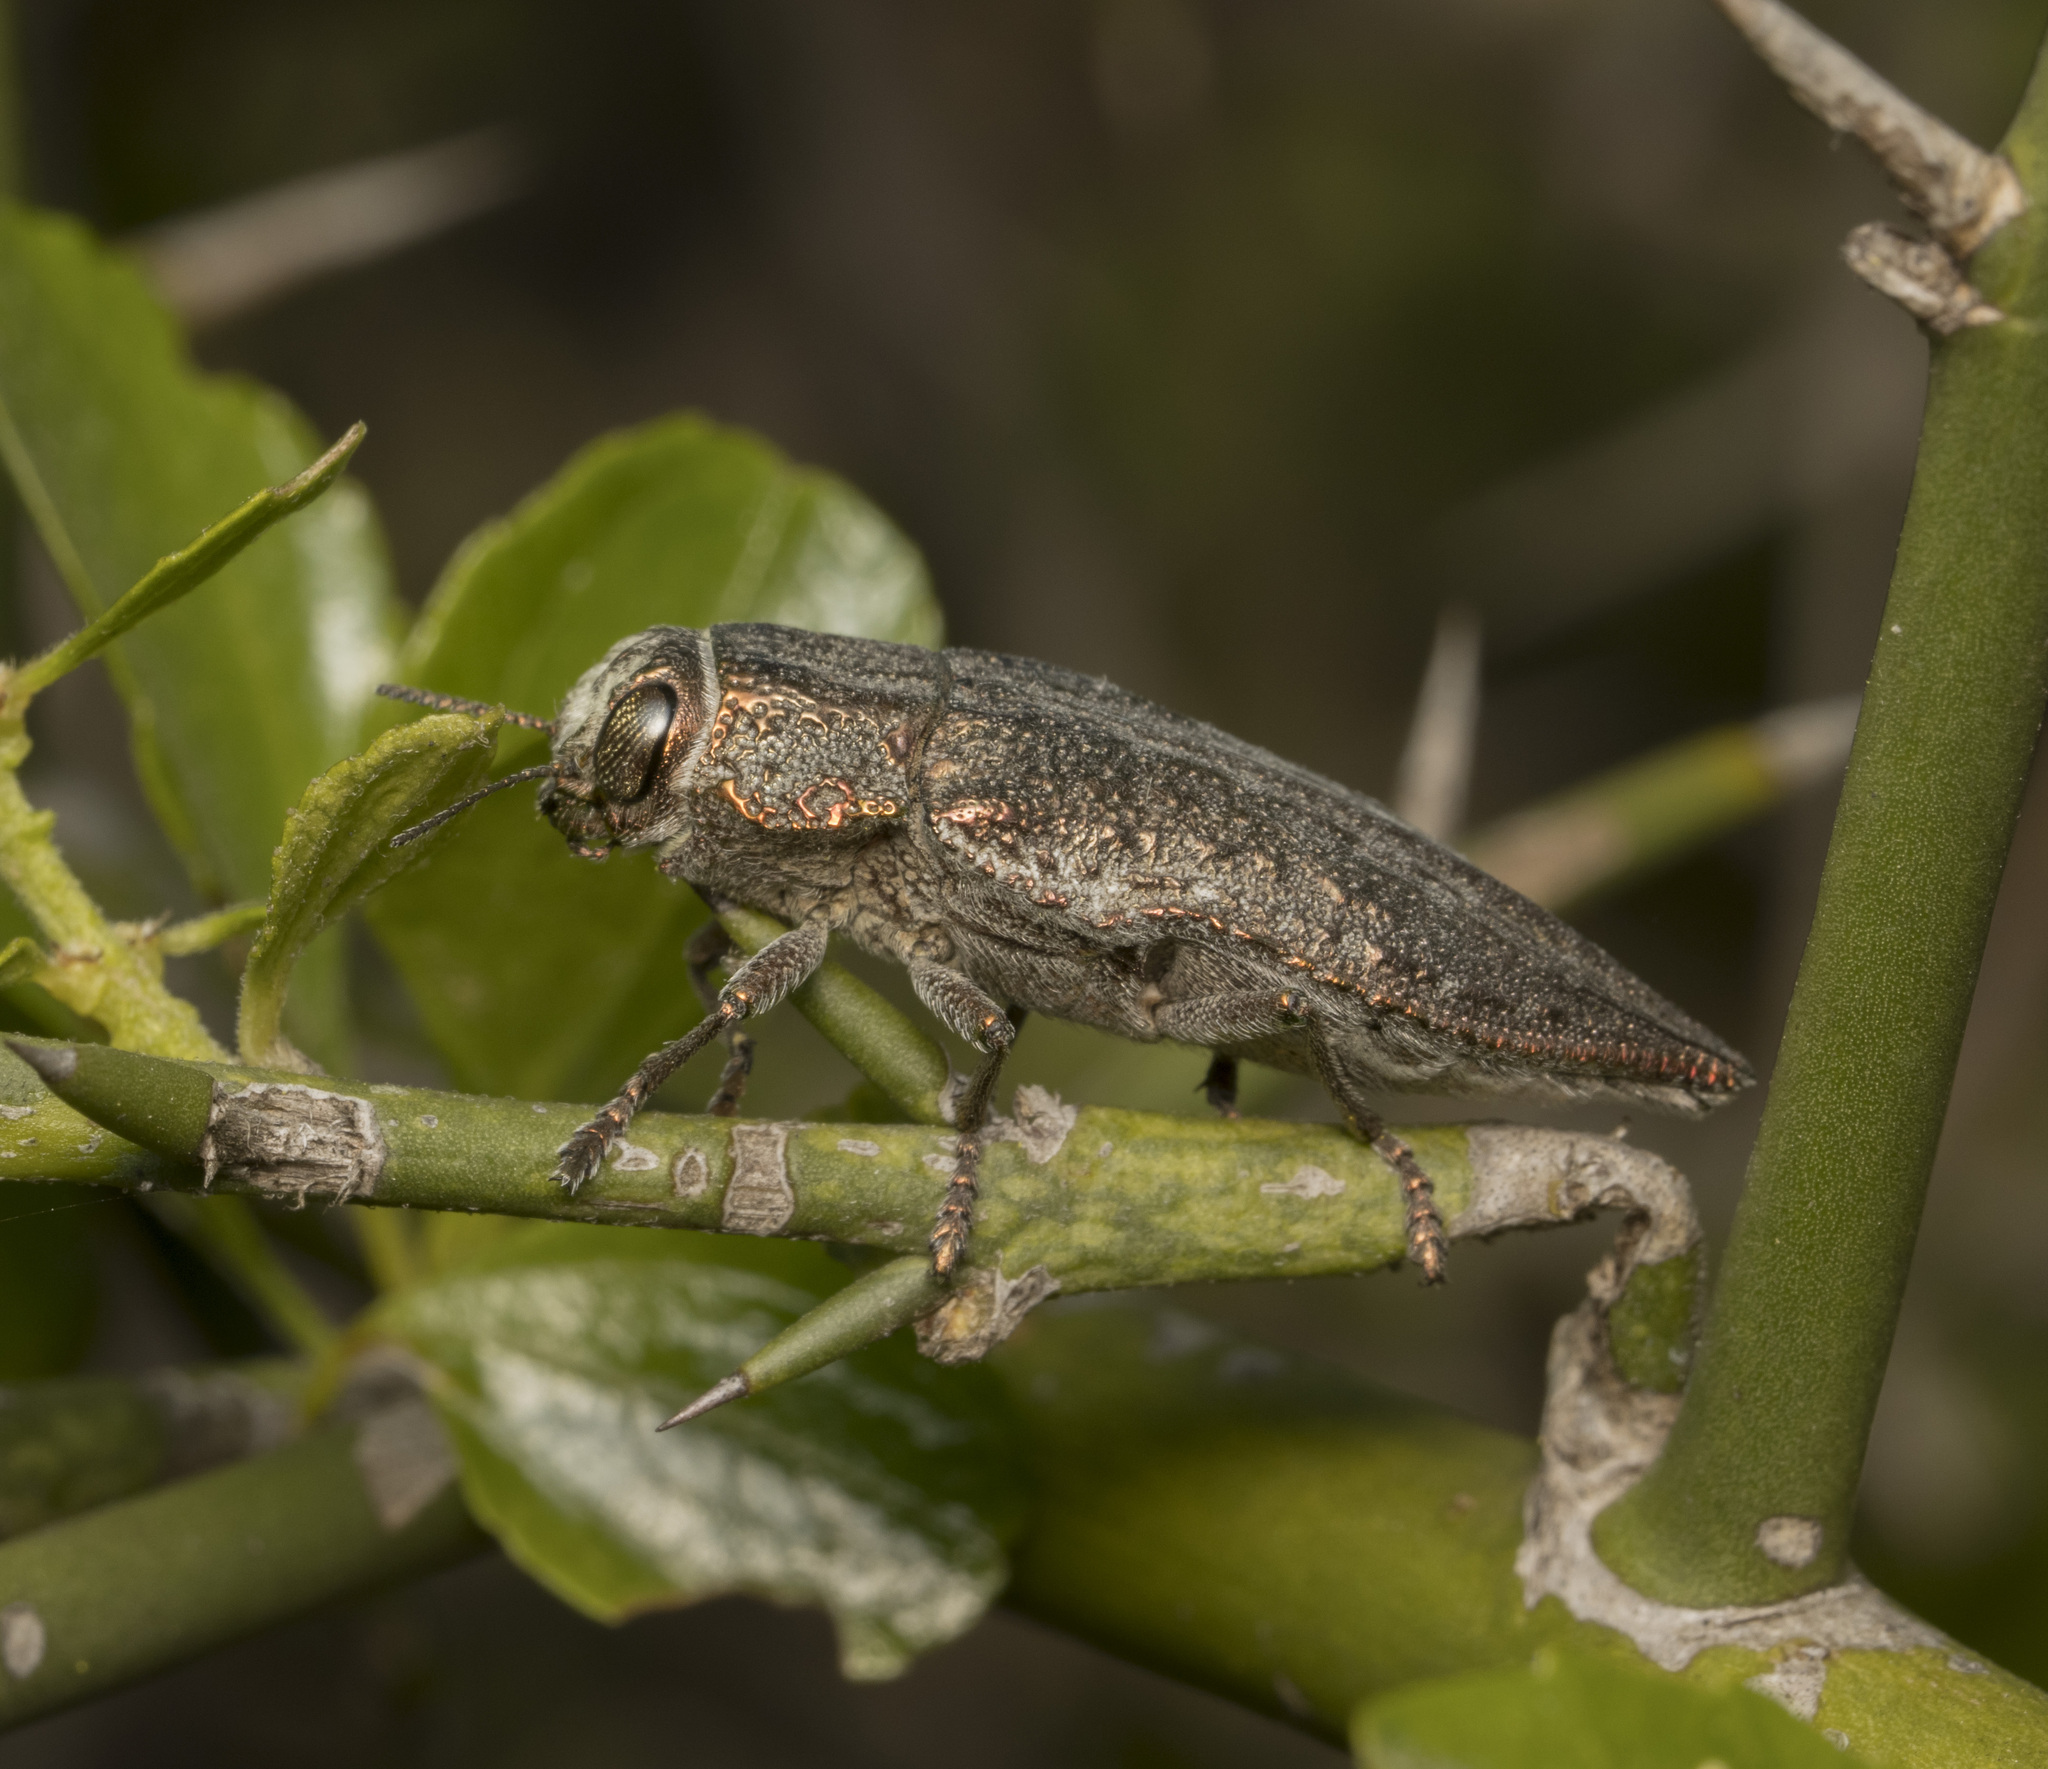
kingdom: Animalia
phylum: Arthropoda
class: Insecta
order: Coleoptera
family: Buprestidae
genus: Ectinogonia
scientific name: Ectinogonia buquetii
